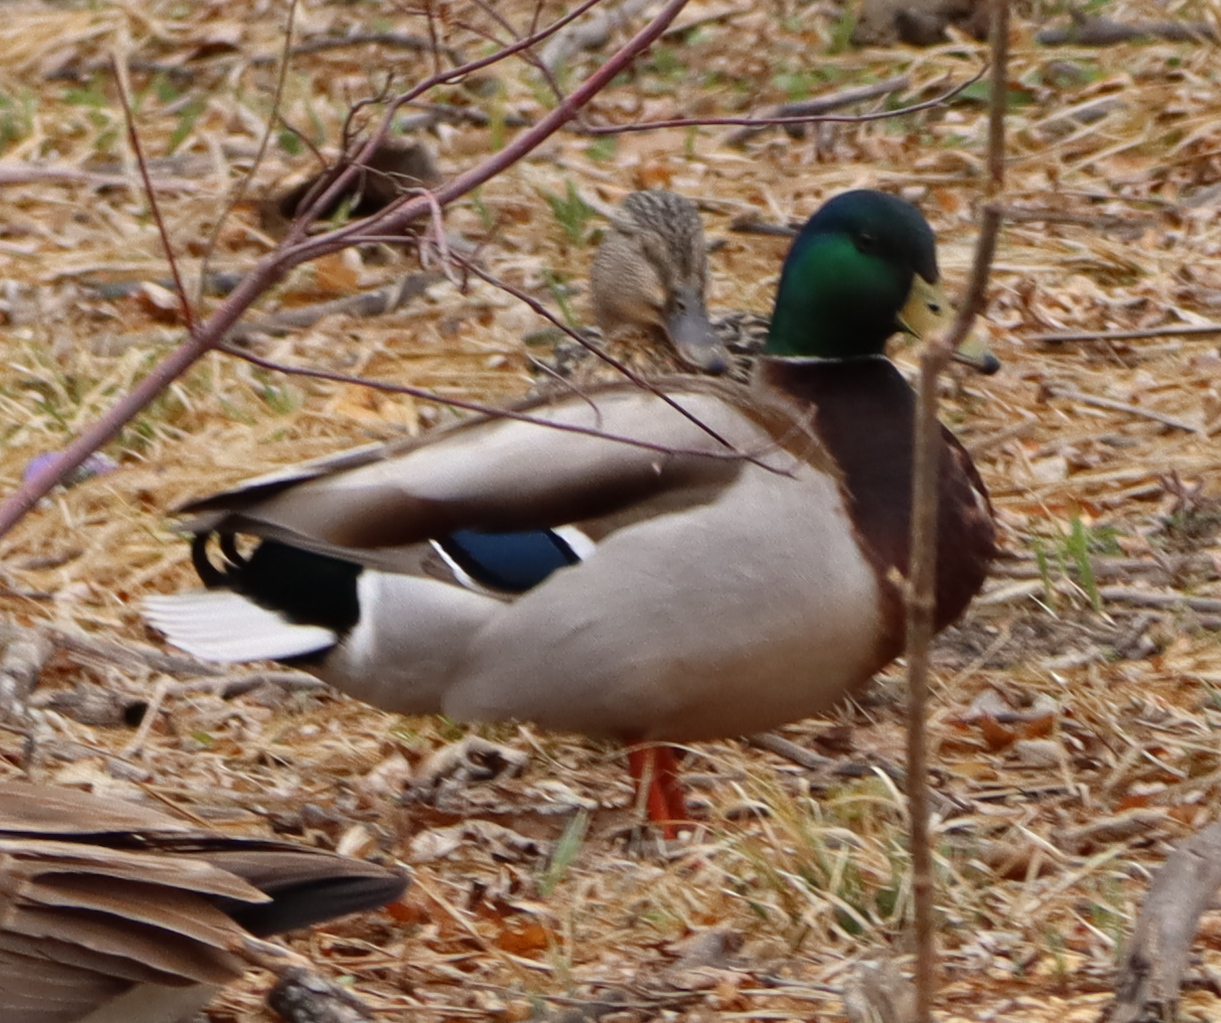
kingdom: Animalia
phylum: Chordata
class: Aves
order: Anseriformes
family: Anatidae
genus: Anas
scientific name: Anas platyrhynchos
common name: Mallard
